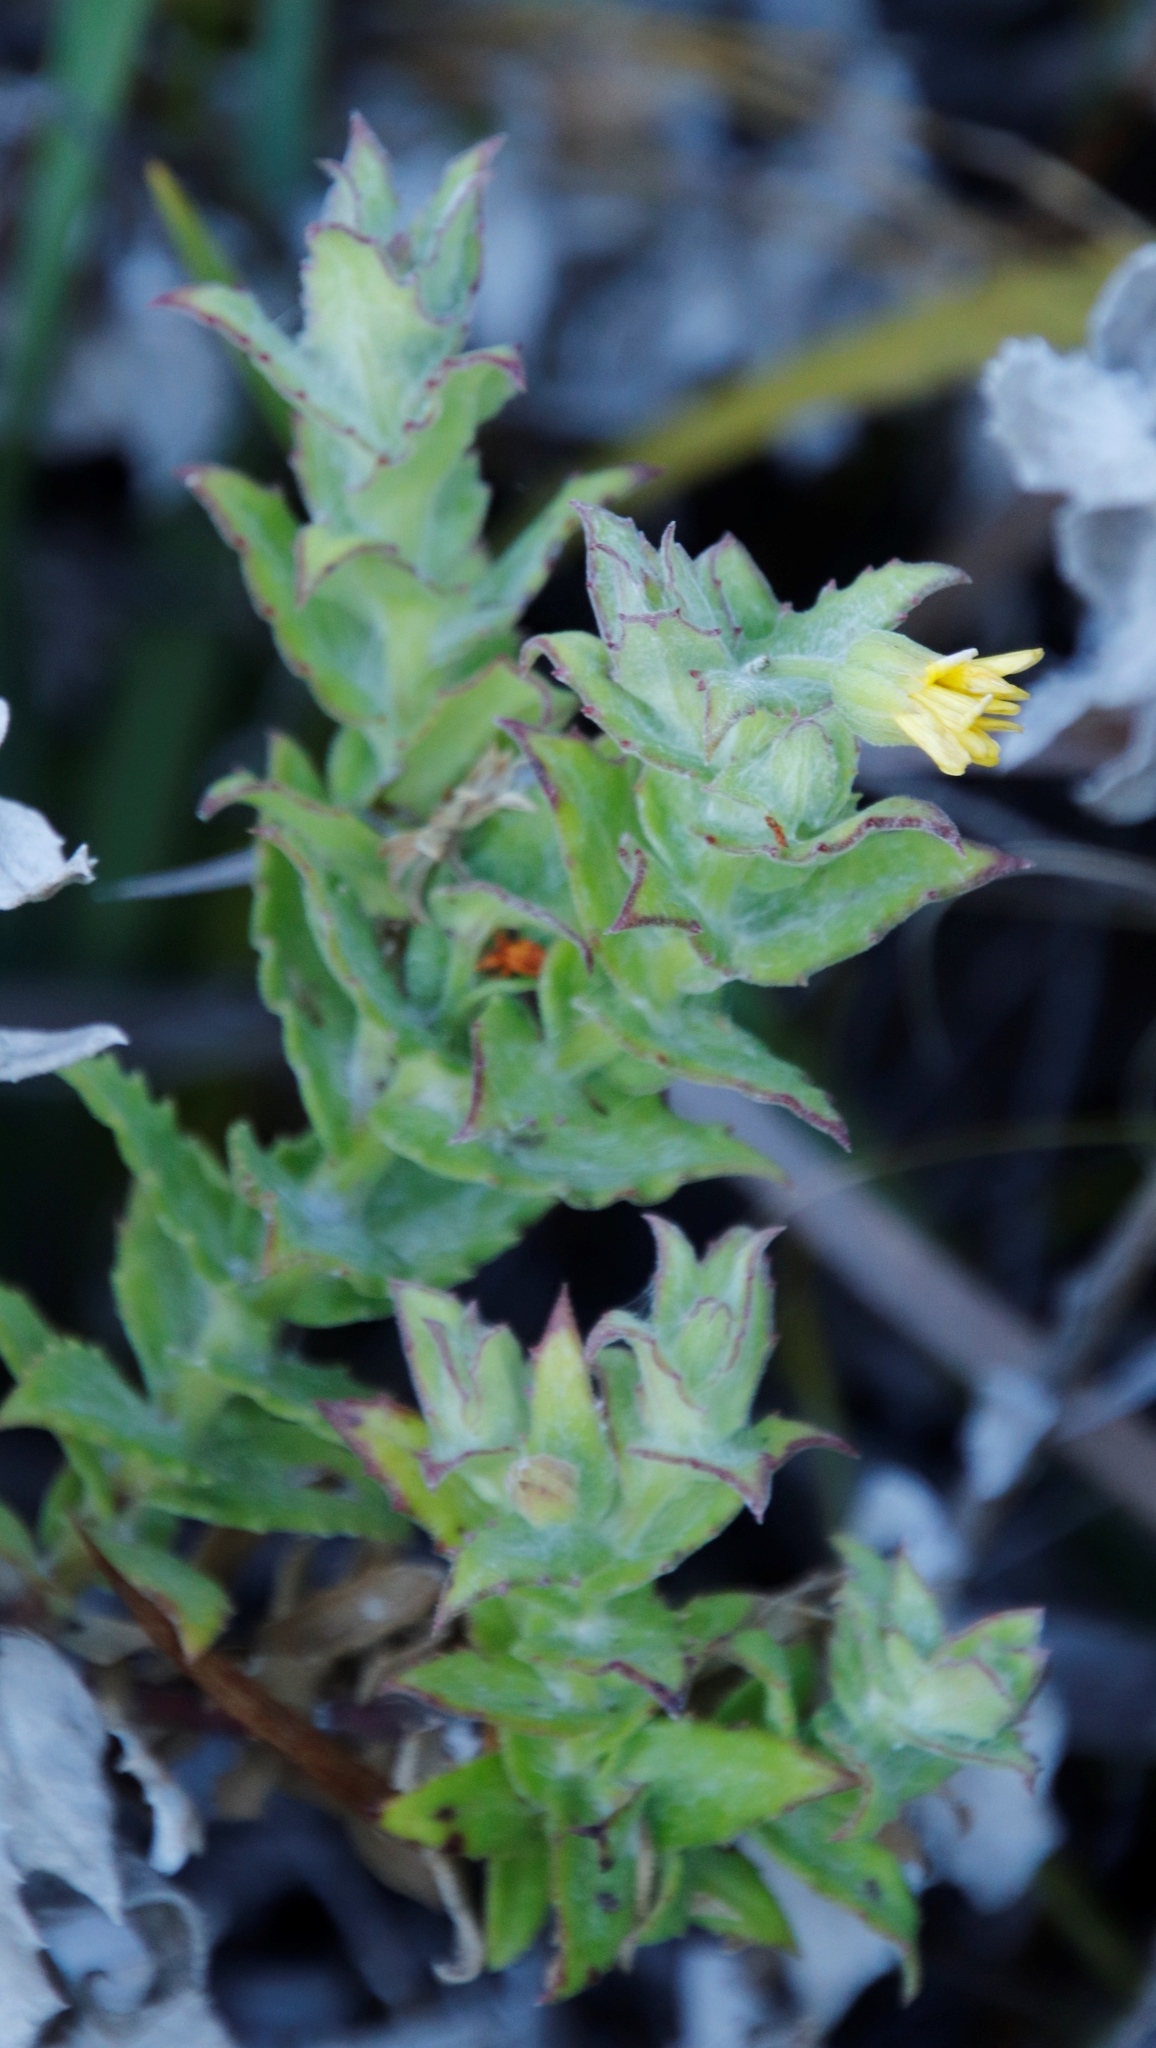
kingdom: Plantae
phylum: Tracheophyta
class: Magnoliopsida
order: Asterales
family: Asteraceae
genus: Osteospermum
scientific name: Osteospermum ilicifolium
